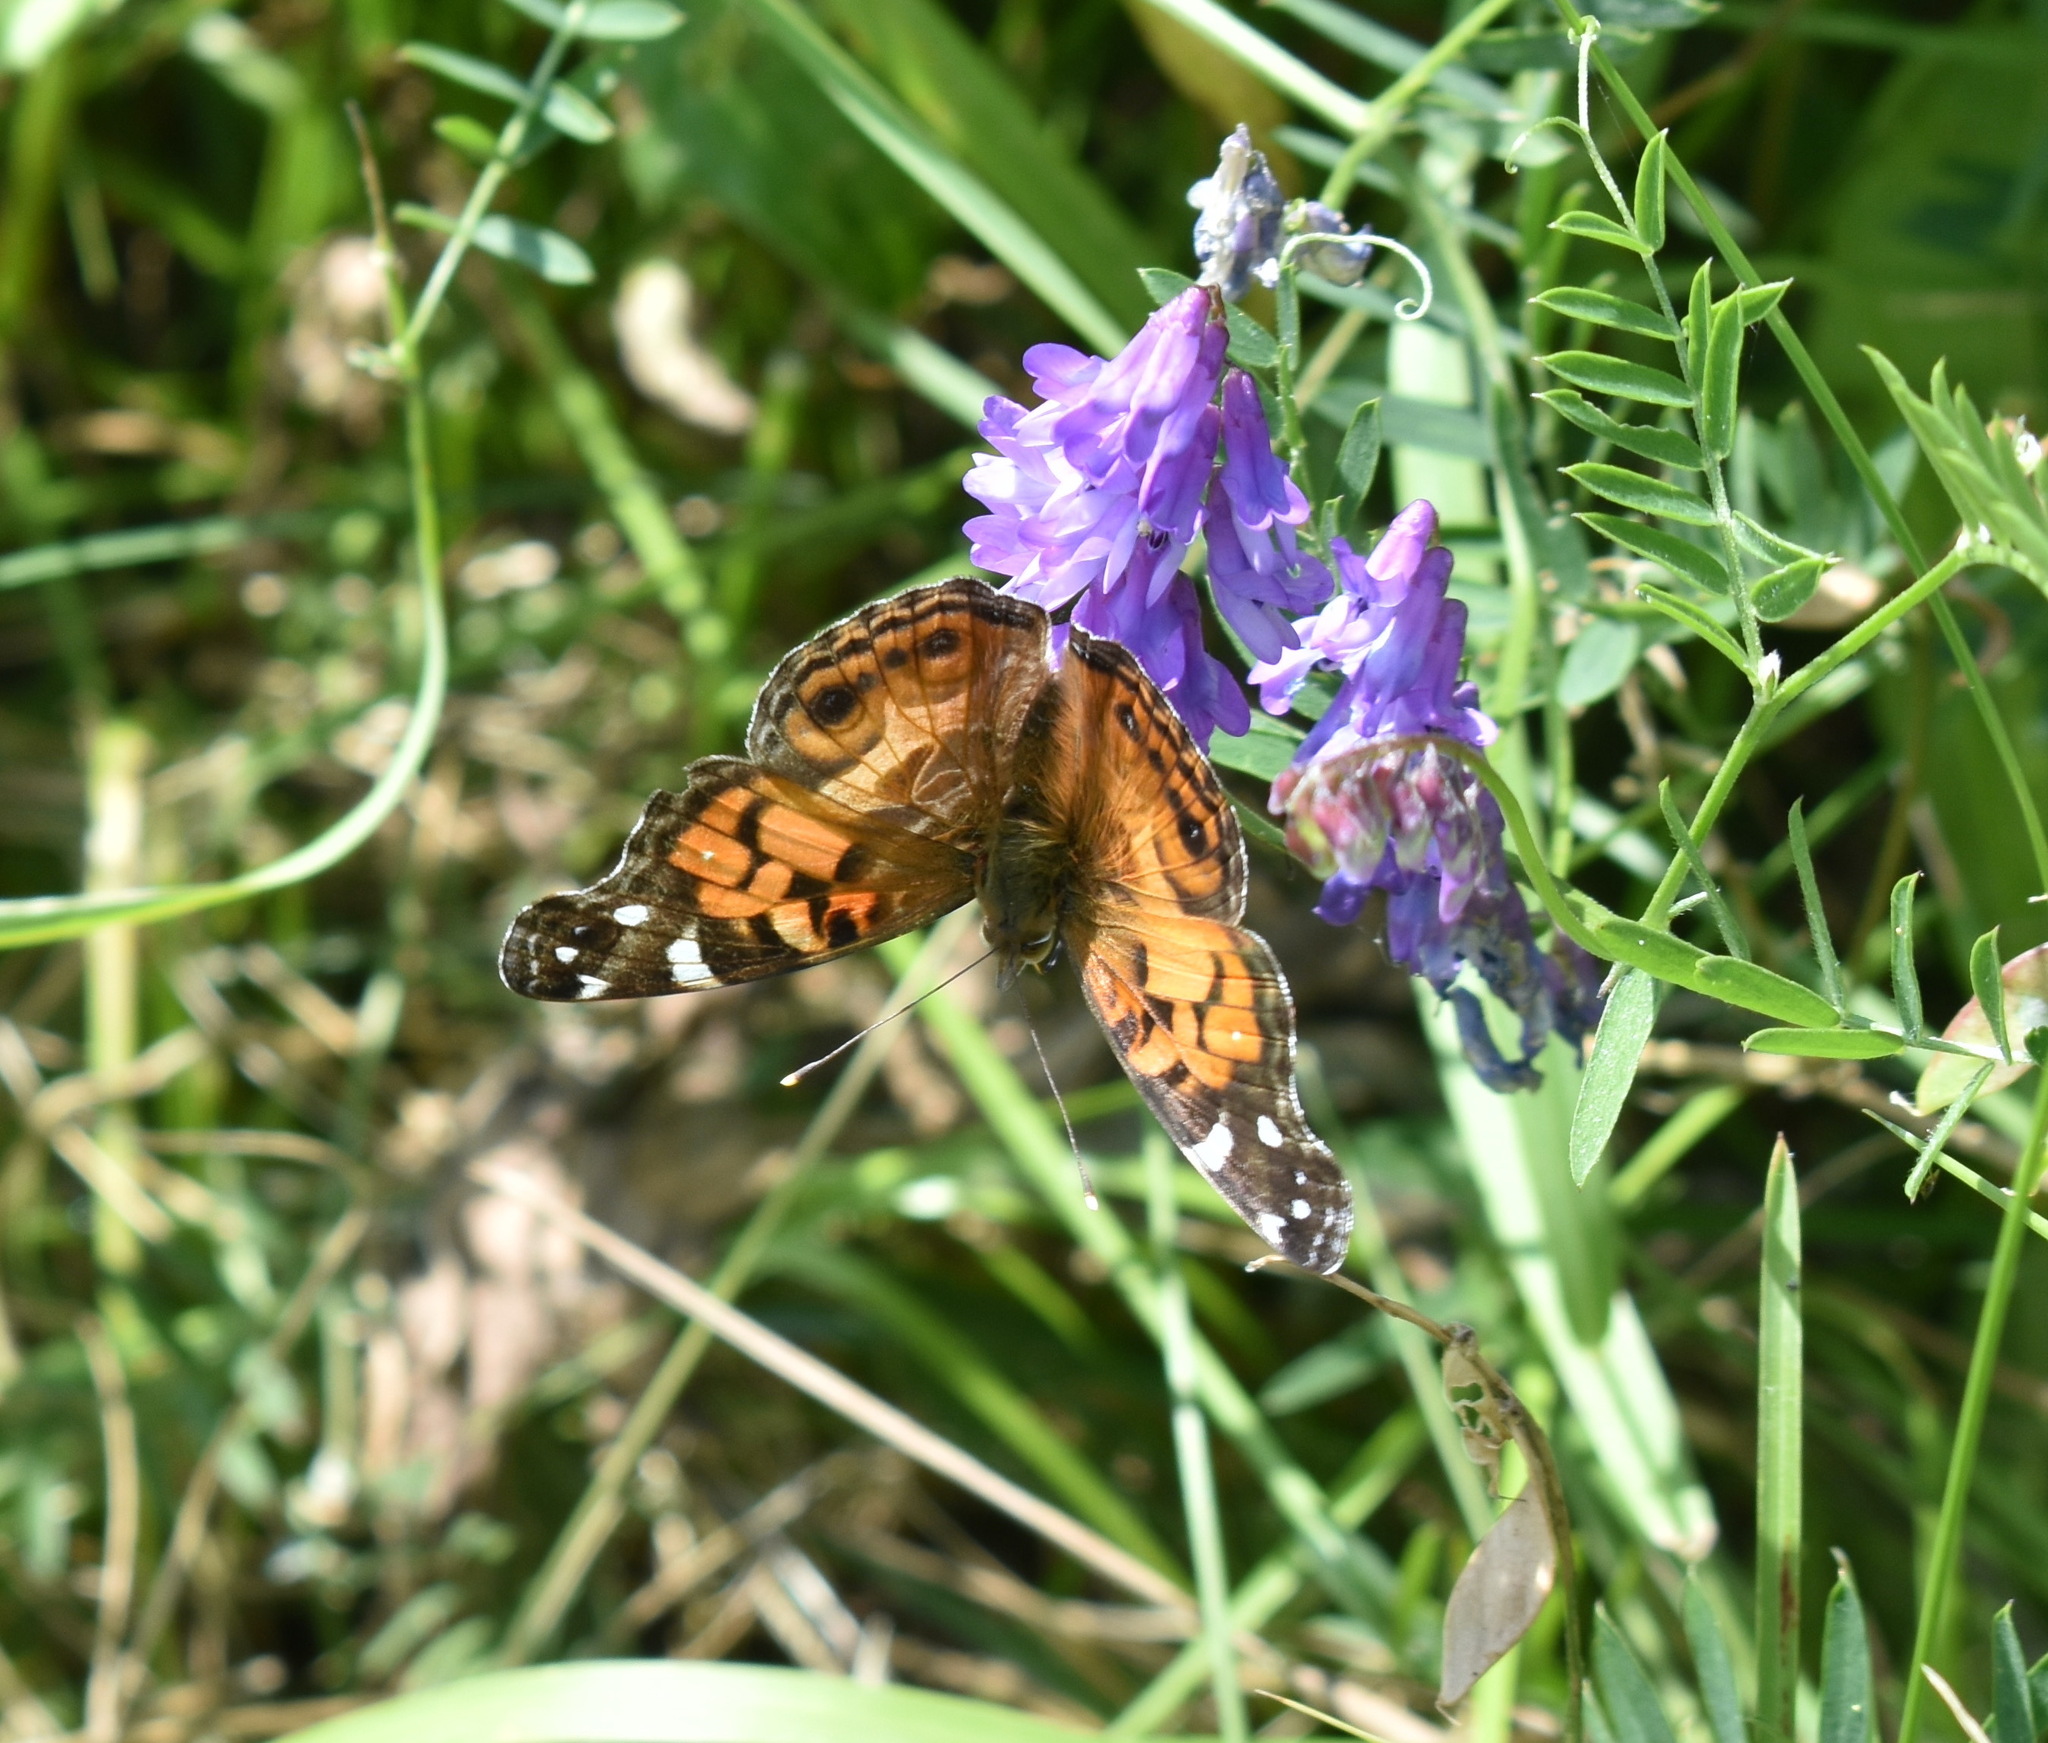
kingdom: Animalia
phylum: Arthropoda
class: Insecta
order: Lepidoptera
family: Nymphalidae
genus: Vanessa
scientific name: Vanessa virginiensis
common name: American lady
